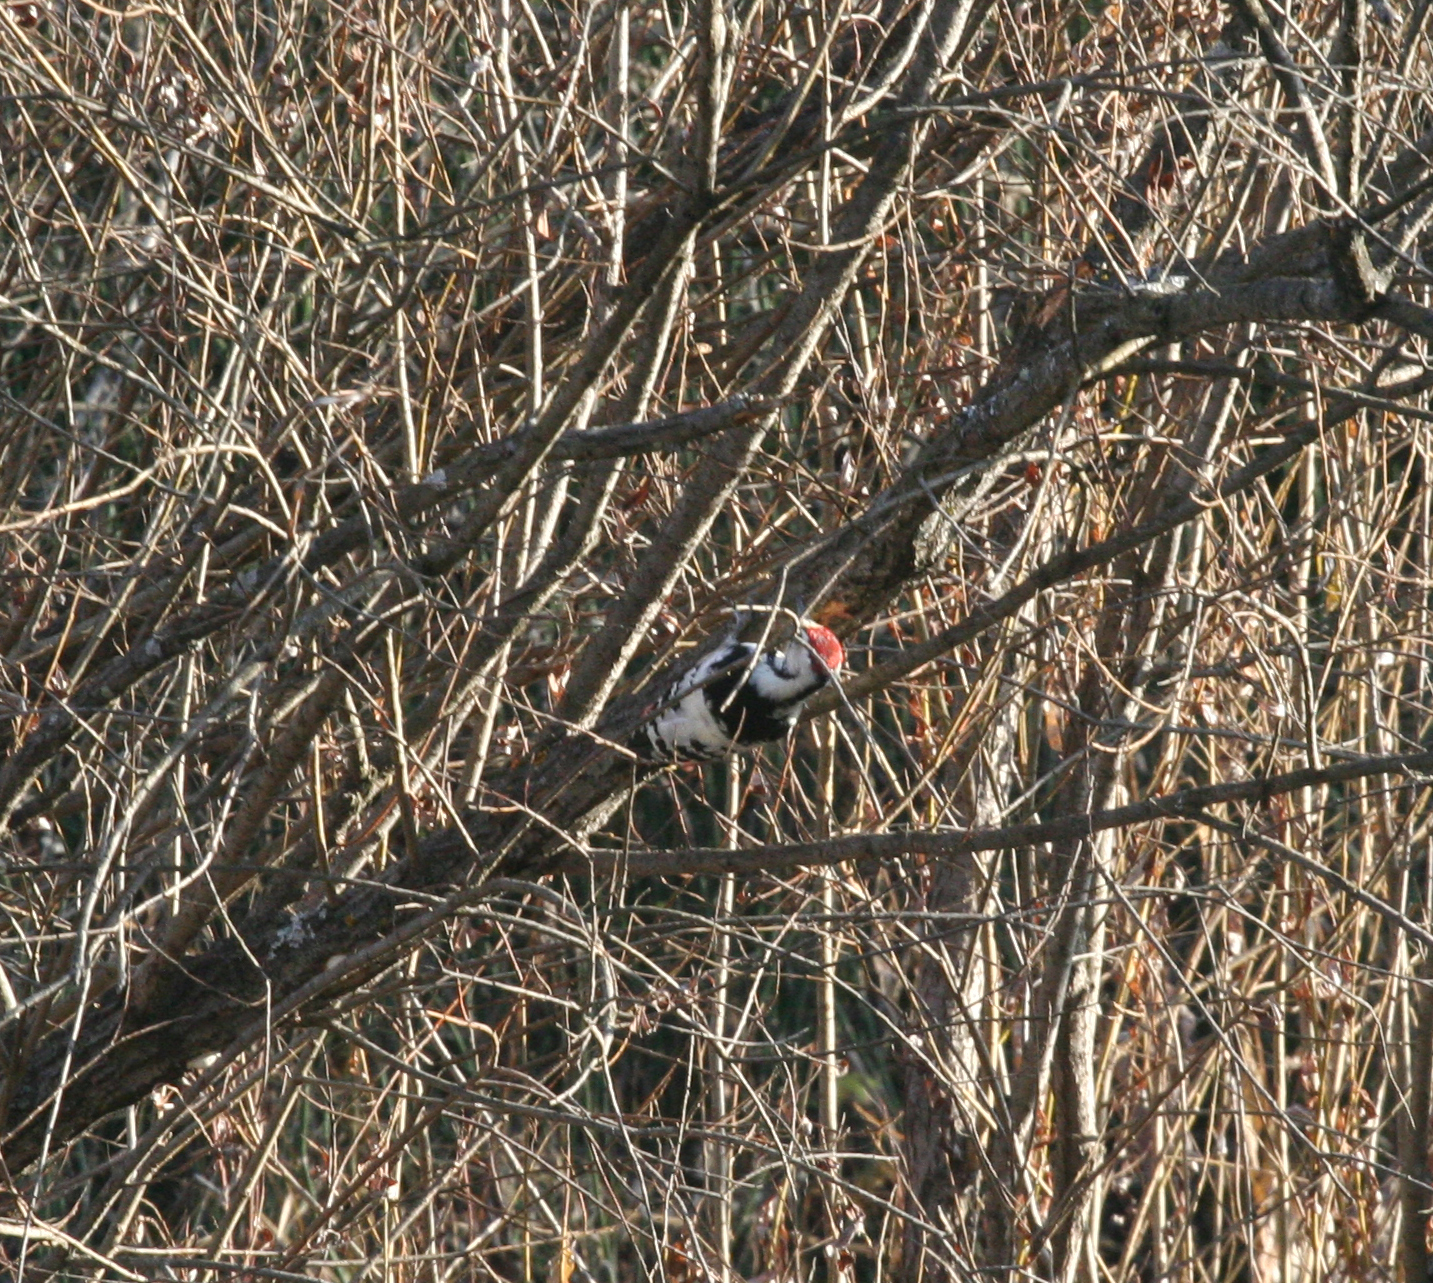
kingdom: Animalia
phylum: Chordata
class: Aves
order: Piciformes
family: Picidae
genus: Dendrocopos
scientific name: Dendrocopos leucotos
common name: White-backed woodpecker
